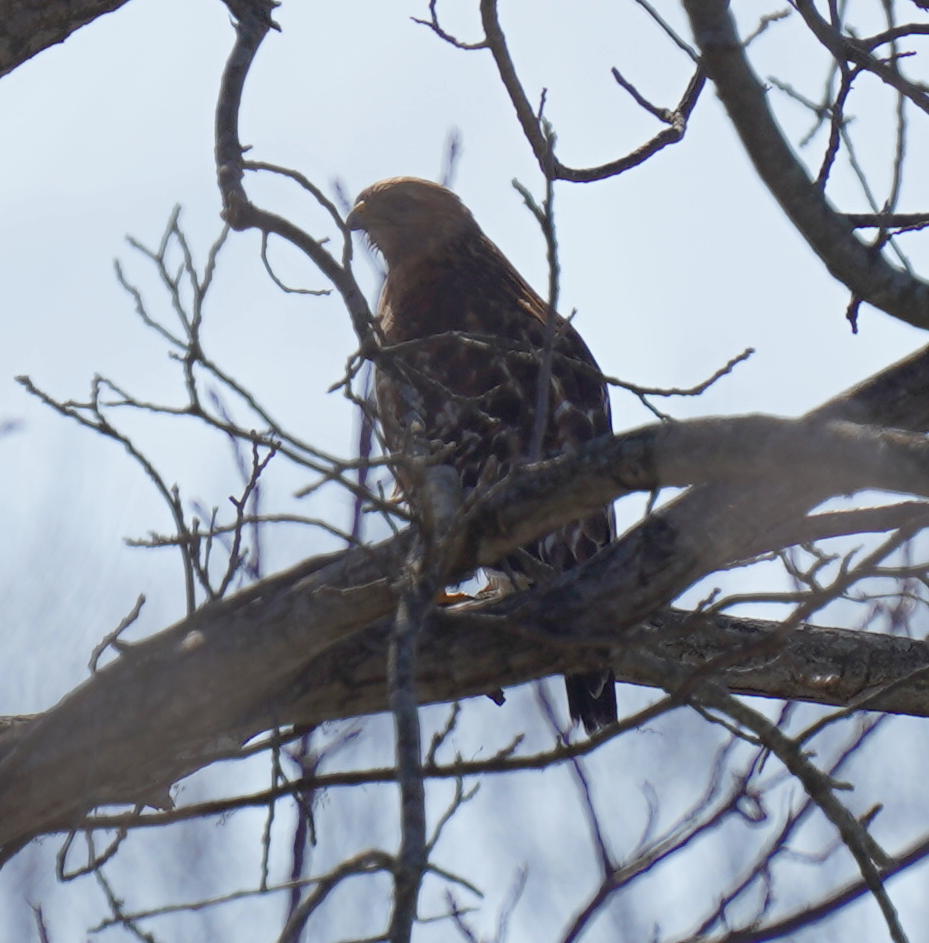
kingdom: Animalia
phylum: Chordata
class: Aves
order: Accipitriformes
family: Accipitridae
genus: Buteo
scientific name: Buteo lineatus
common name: Red-shouldered hawk
